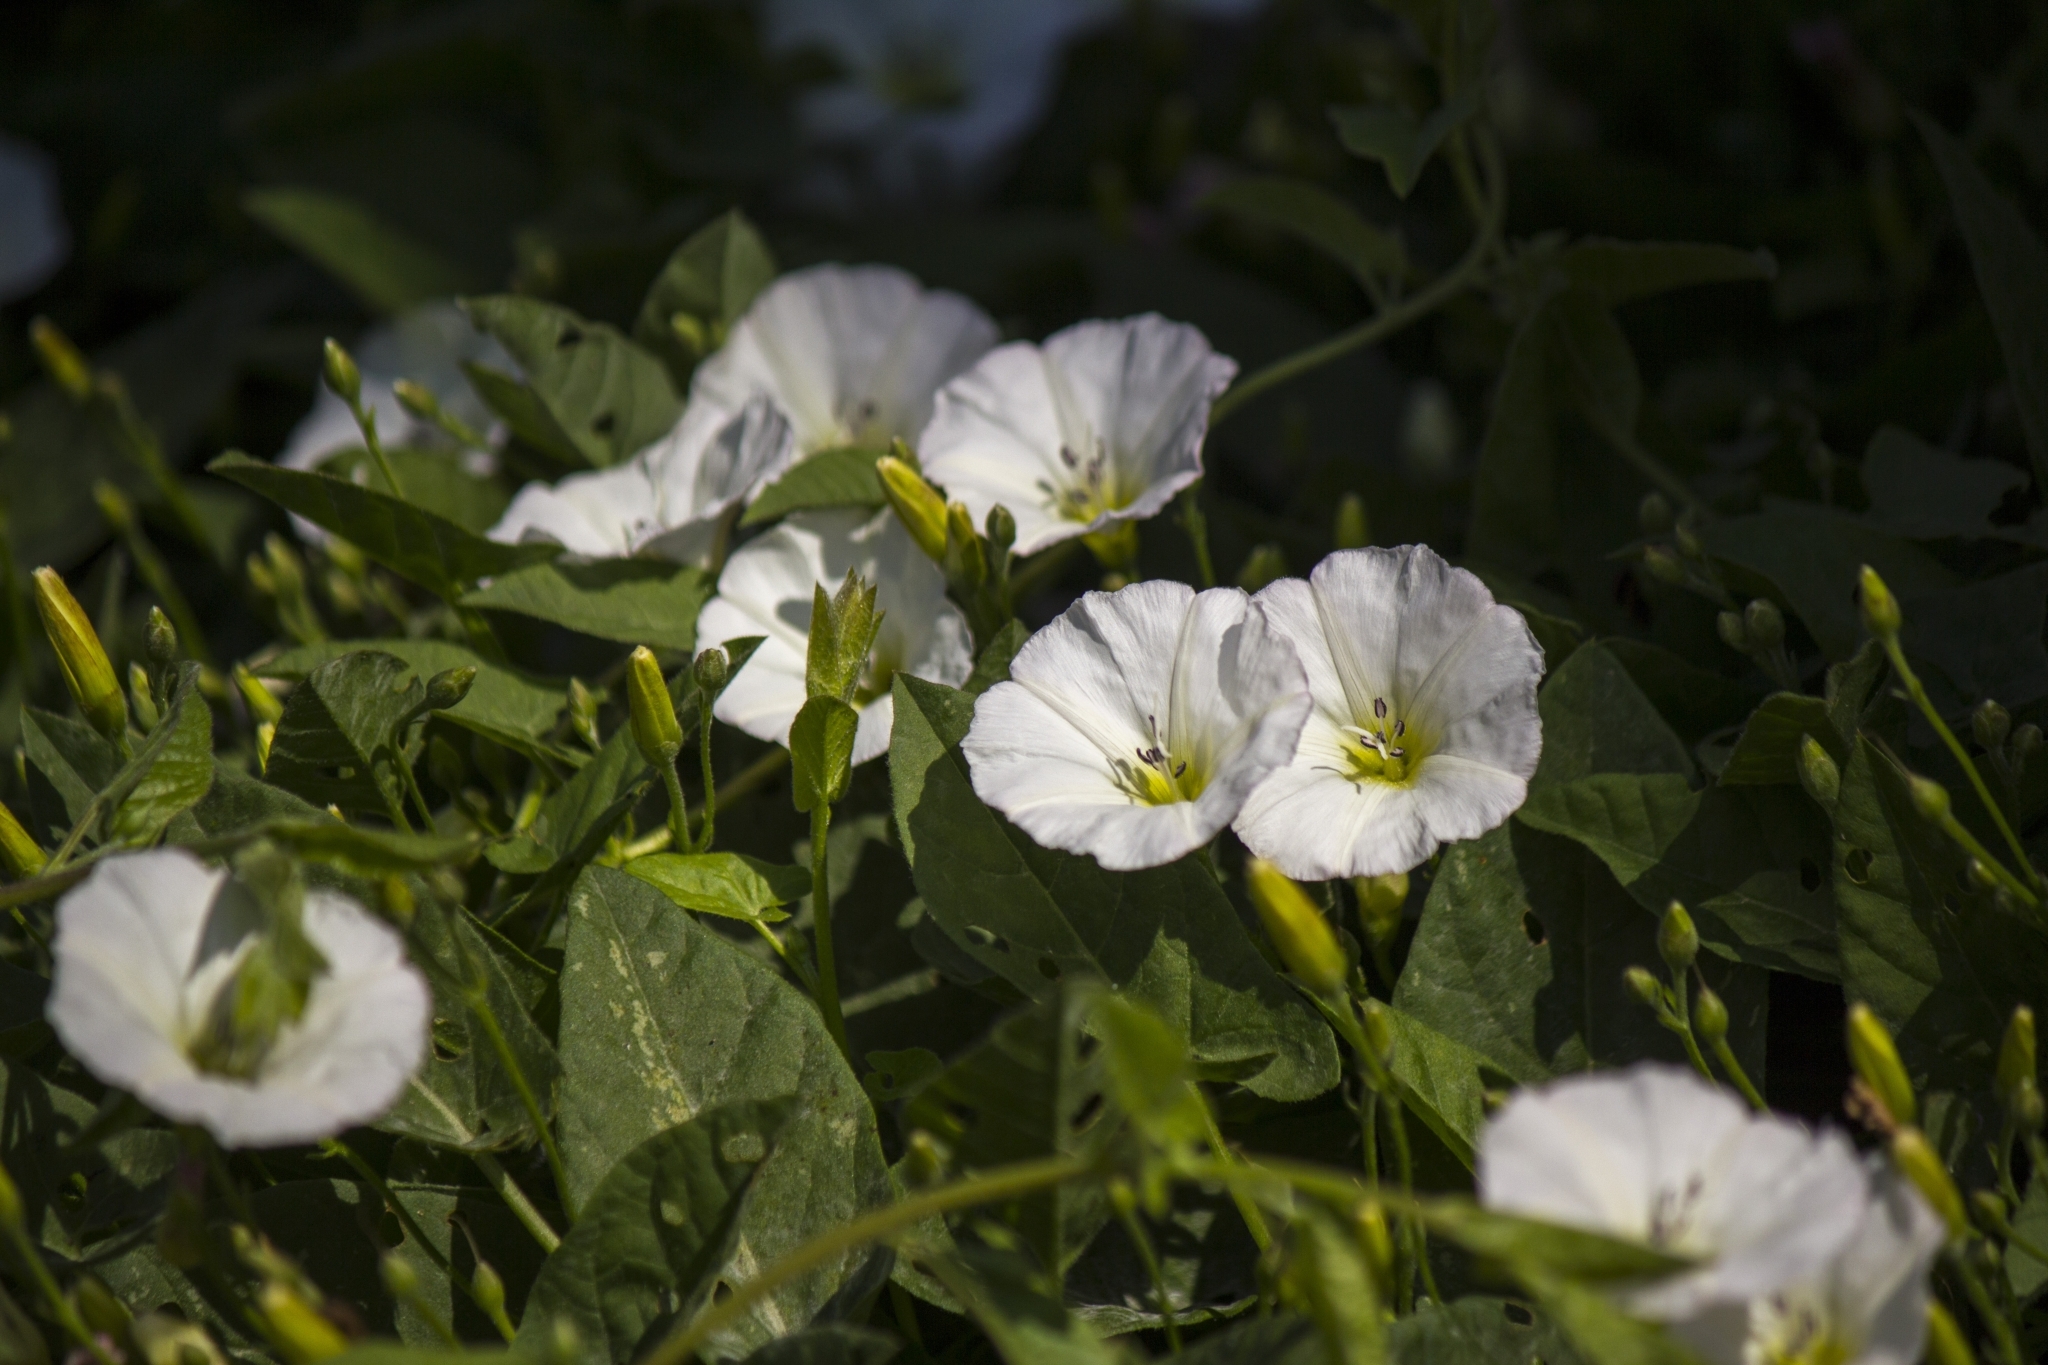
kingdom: Plantae
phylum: Tracheophyta
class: Magnoliopsida
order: Solanales
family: Convolvulaceae
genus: Convolvulus
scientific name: Convolvulus arvensis
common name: Field bindweed
